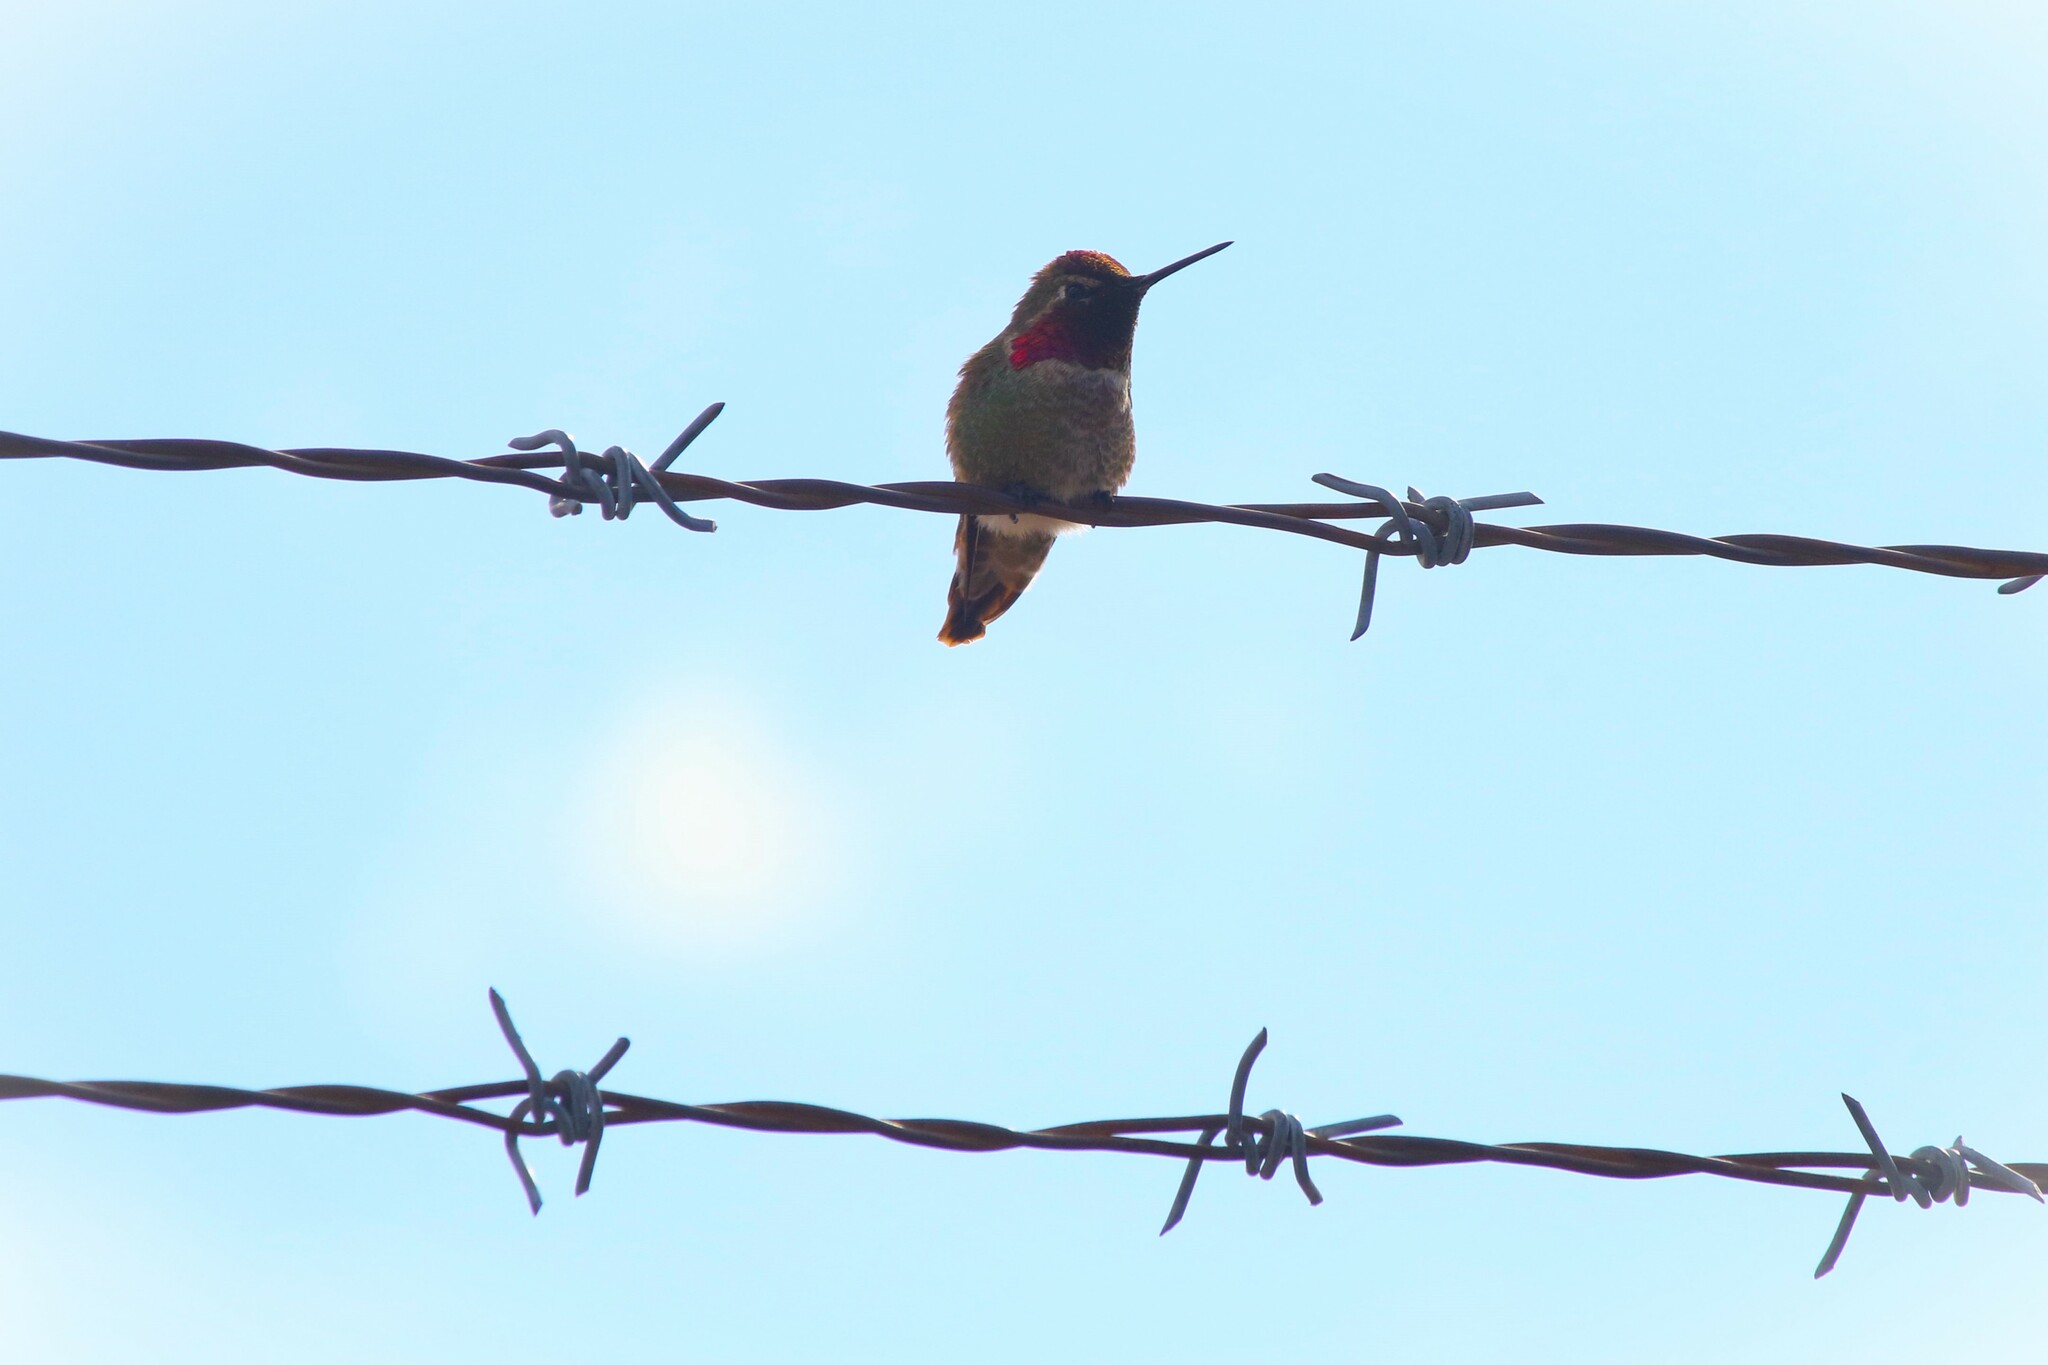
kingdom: Animalia
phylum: Chordata
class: Aves
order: Apodiformes
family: Trochilidae
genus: Calypte
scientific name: Calypte anna
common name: Anna's hummingbird
